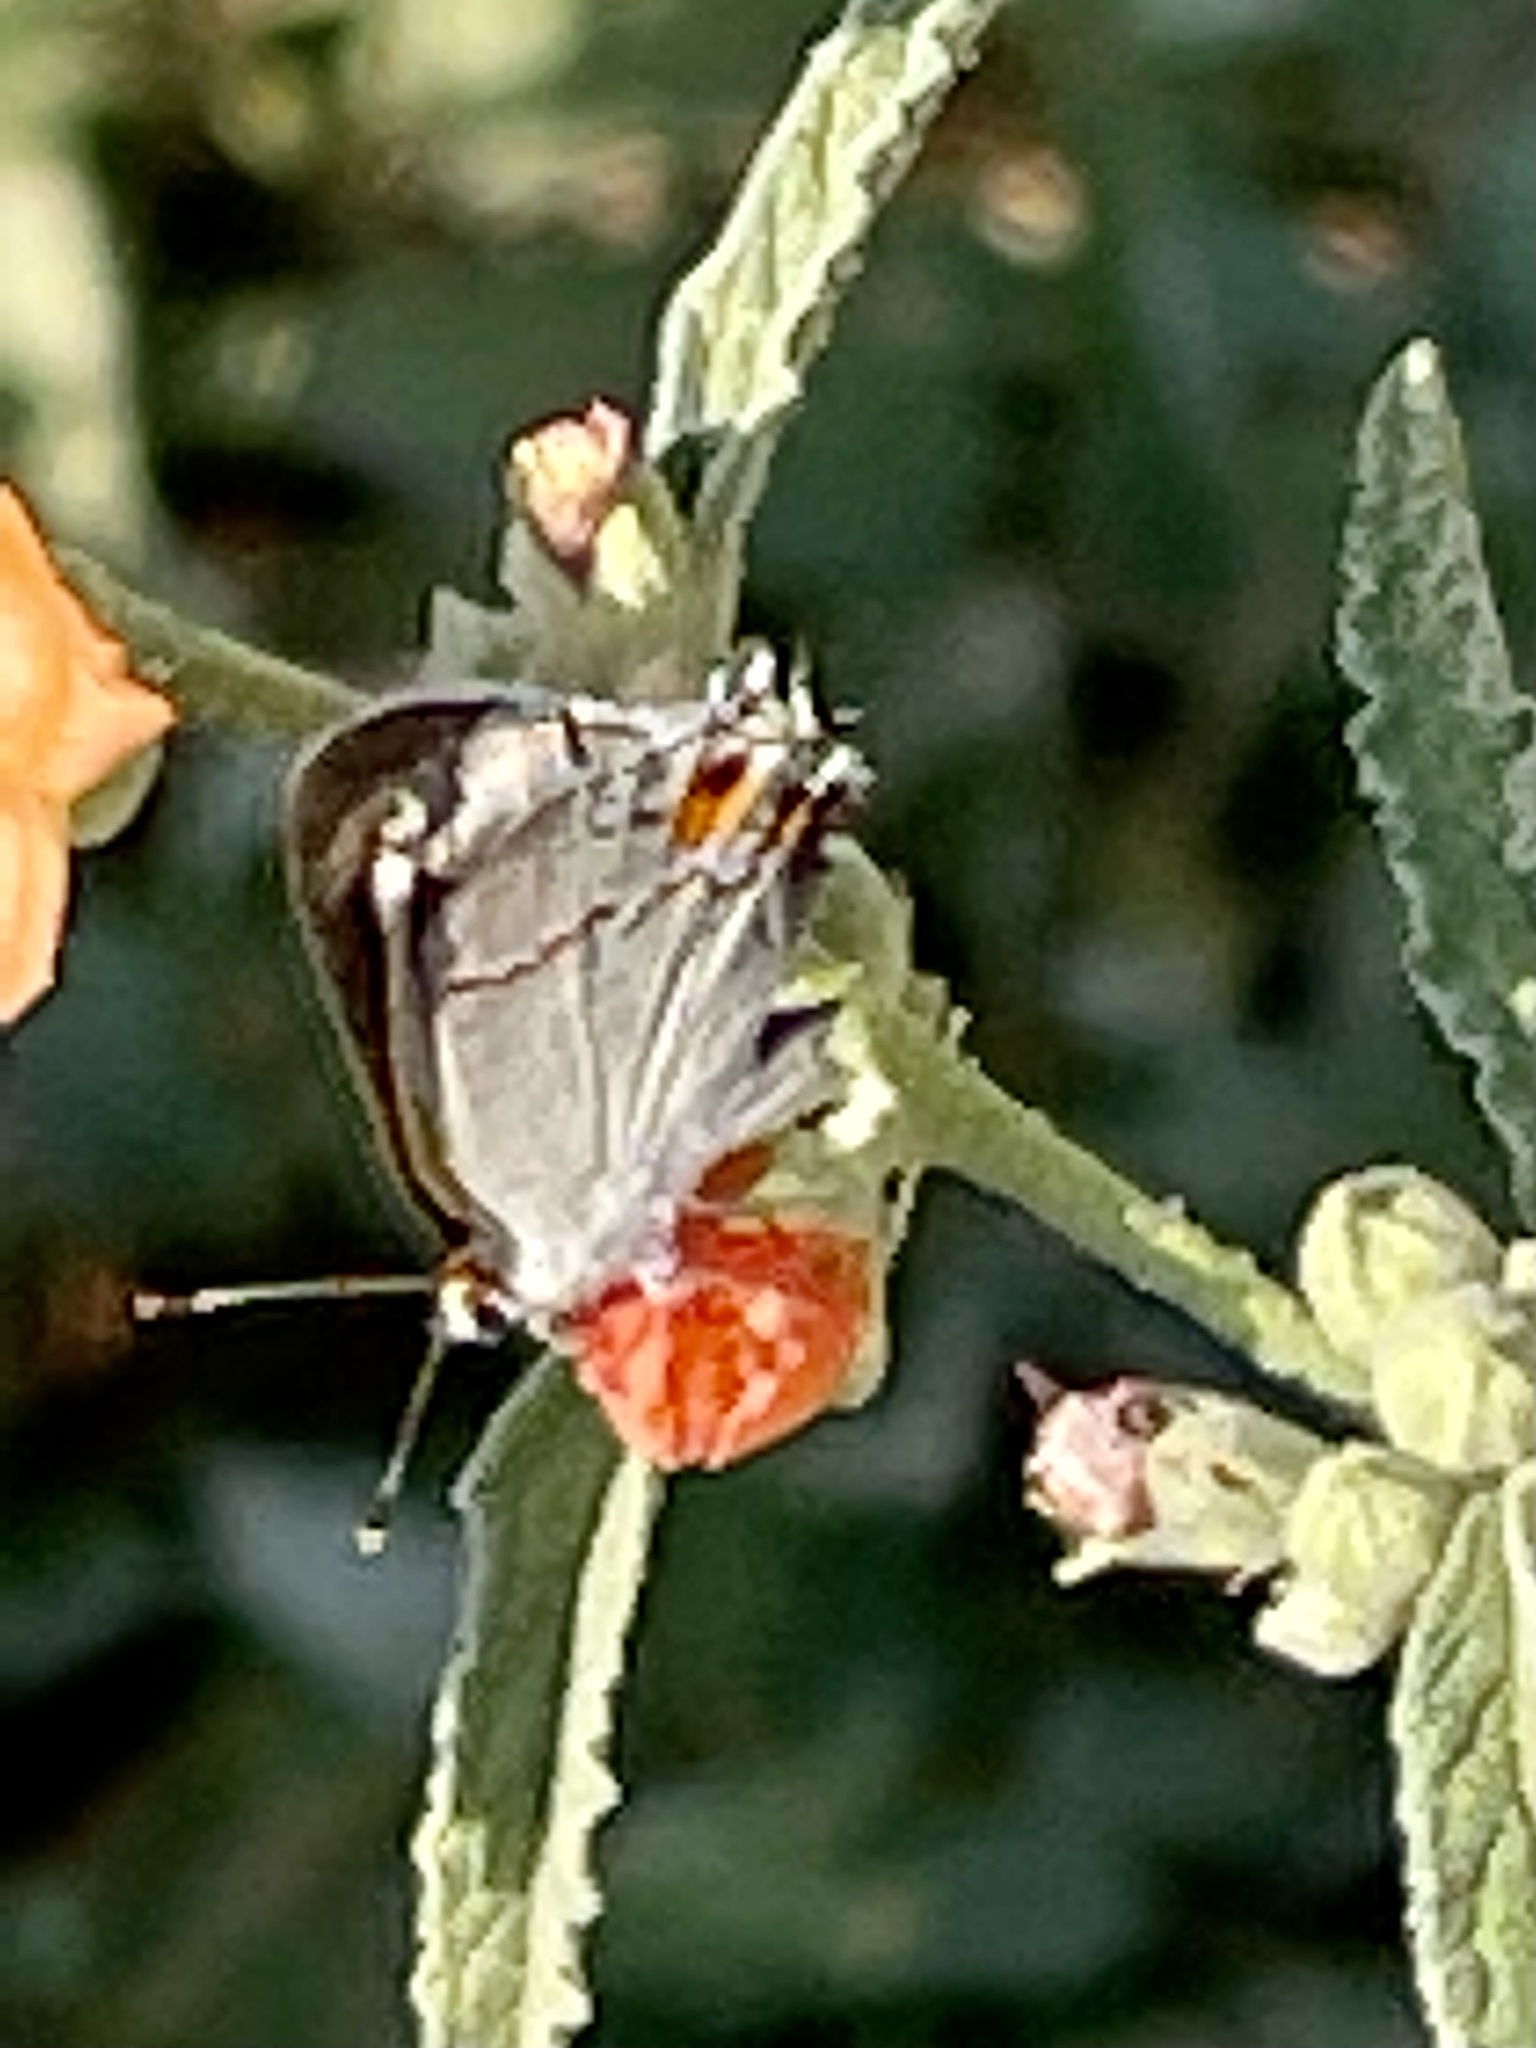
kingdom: Animalia
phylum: Arthropoda
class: Insecta
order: Lepidoptera
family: Lycaenidae
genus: Strymon
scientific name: Strymon melinus
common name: Gray hairstreak
